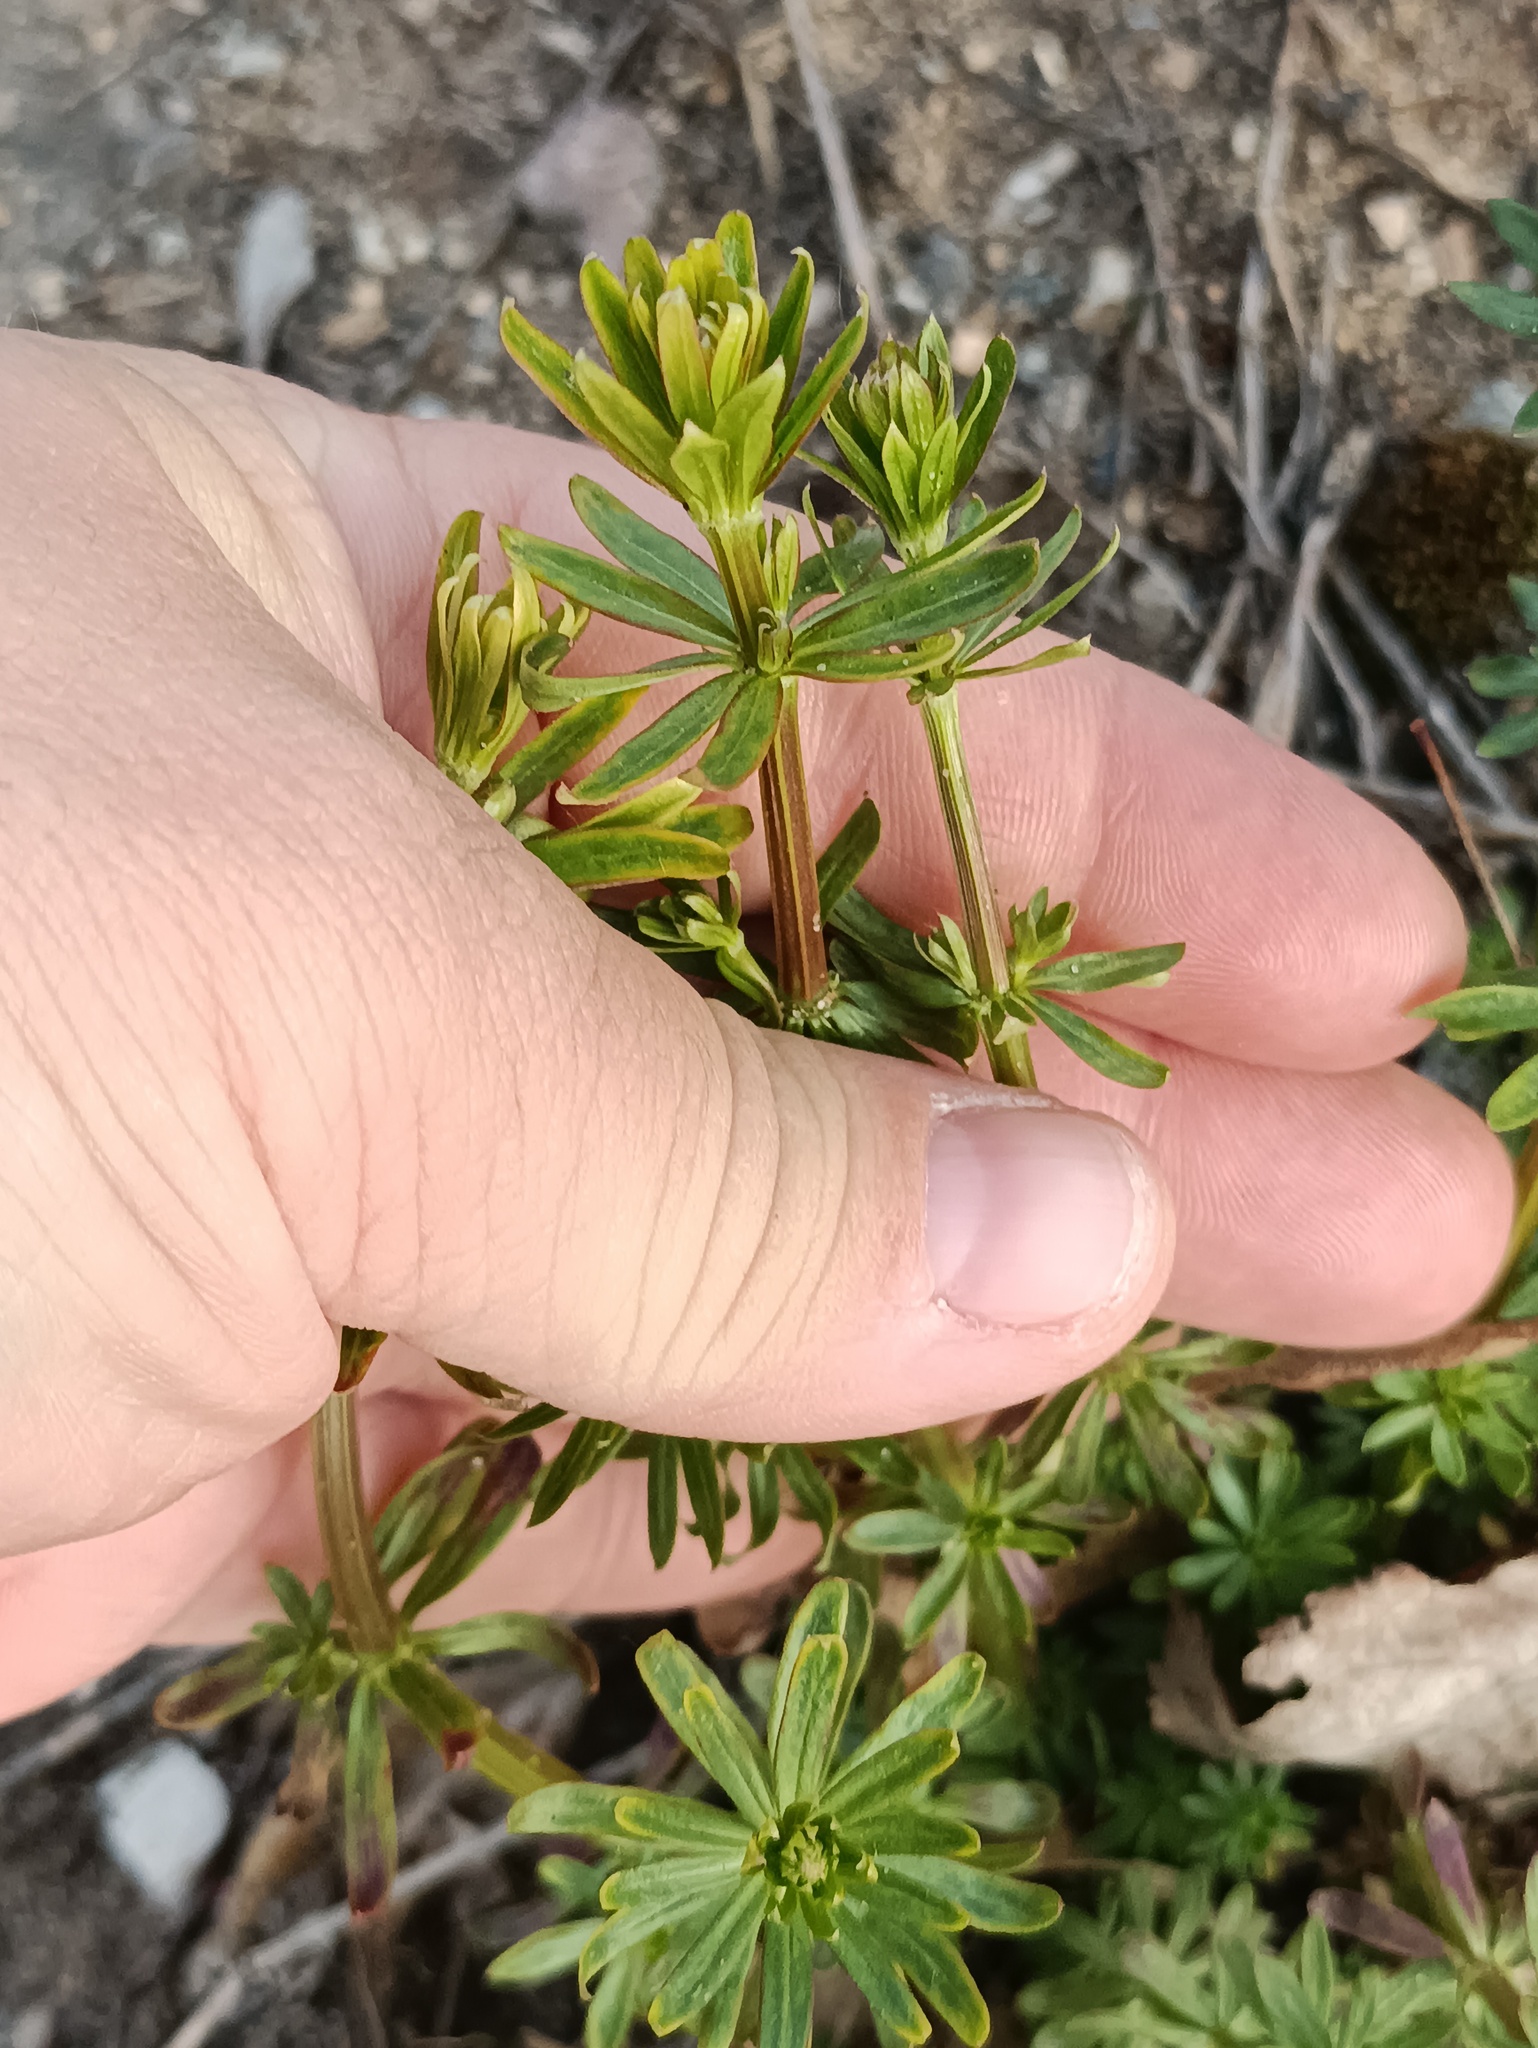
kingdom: Plantae
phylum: Tracheophyta
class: Magnoliopsida
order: Gentianales
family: Rubiaceae
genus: Galium
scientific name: Galium mollugo
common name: Hedge bedstraw
